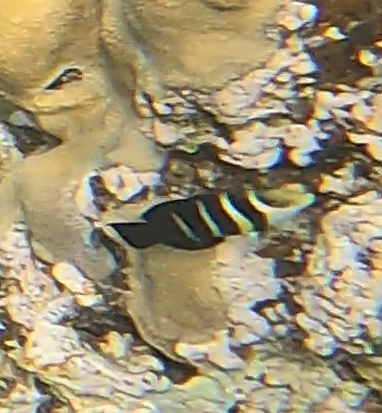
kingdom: Animalia
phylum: Chordata
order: Perciformes
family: Labridae
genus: Hemigymnus
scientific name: Hemigymnus sexfasciatus
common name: Barred thicklip
